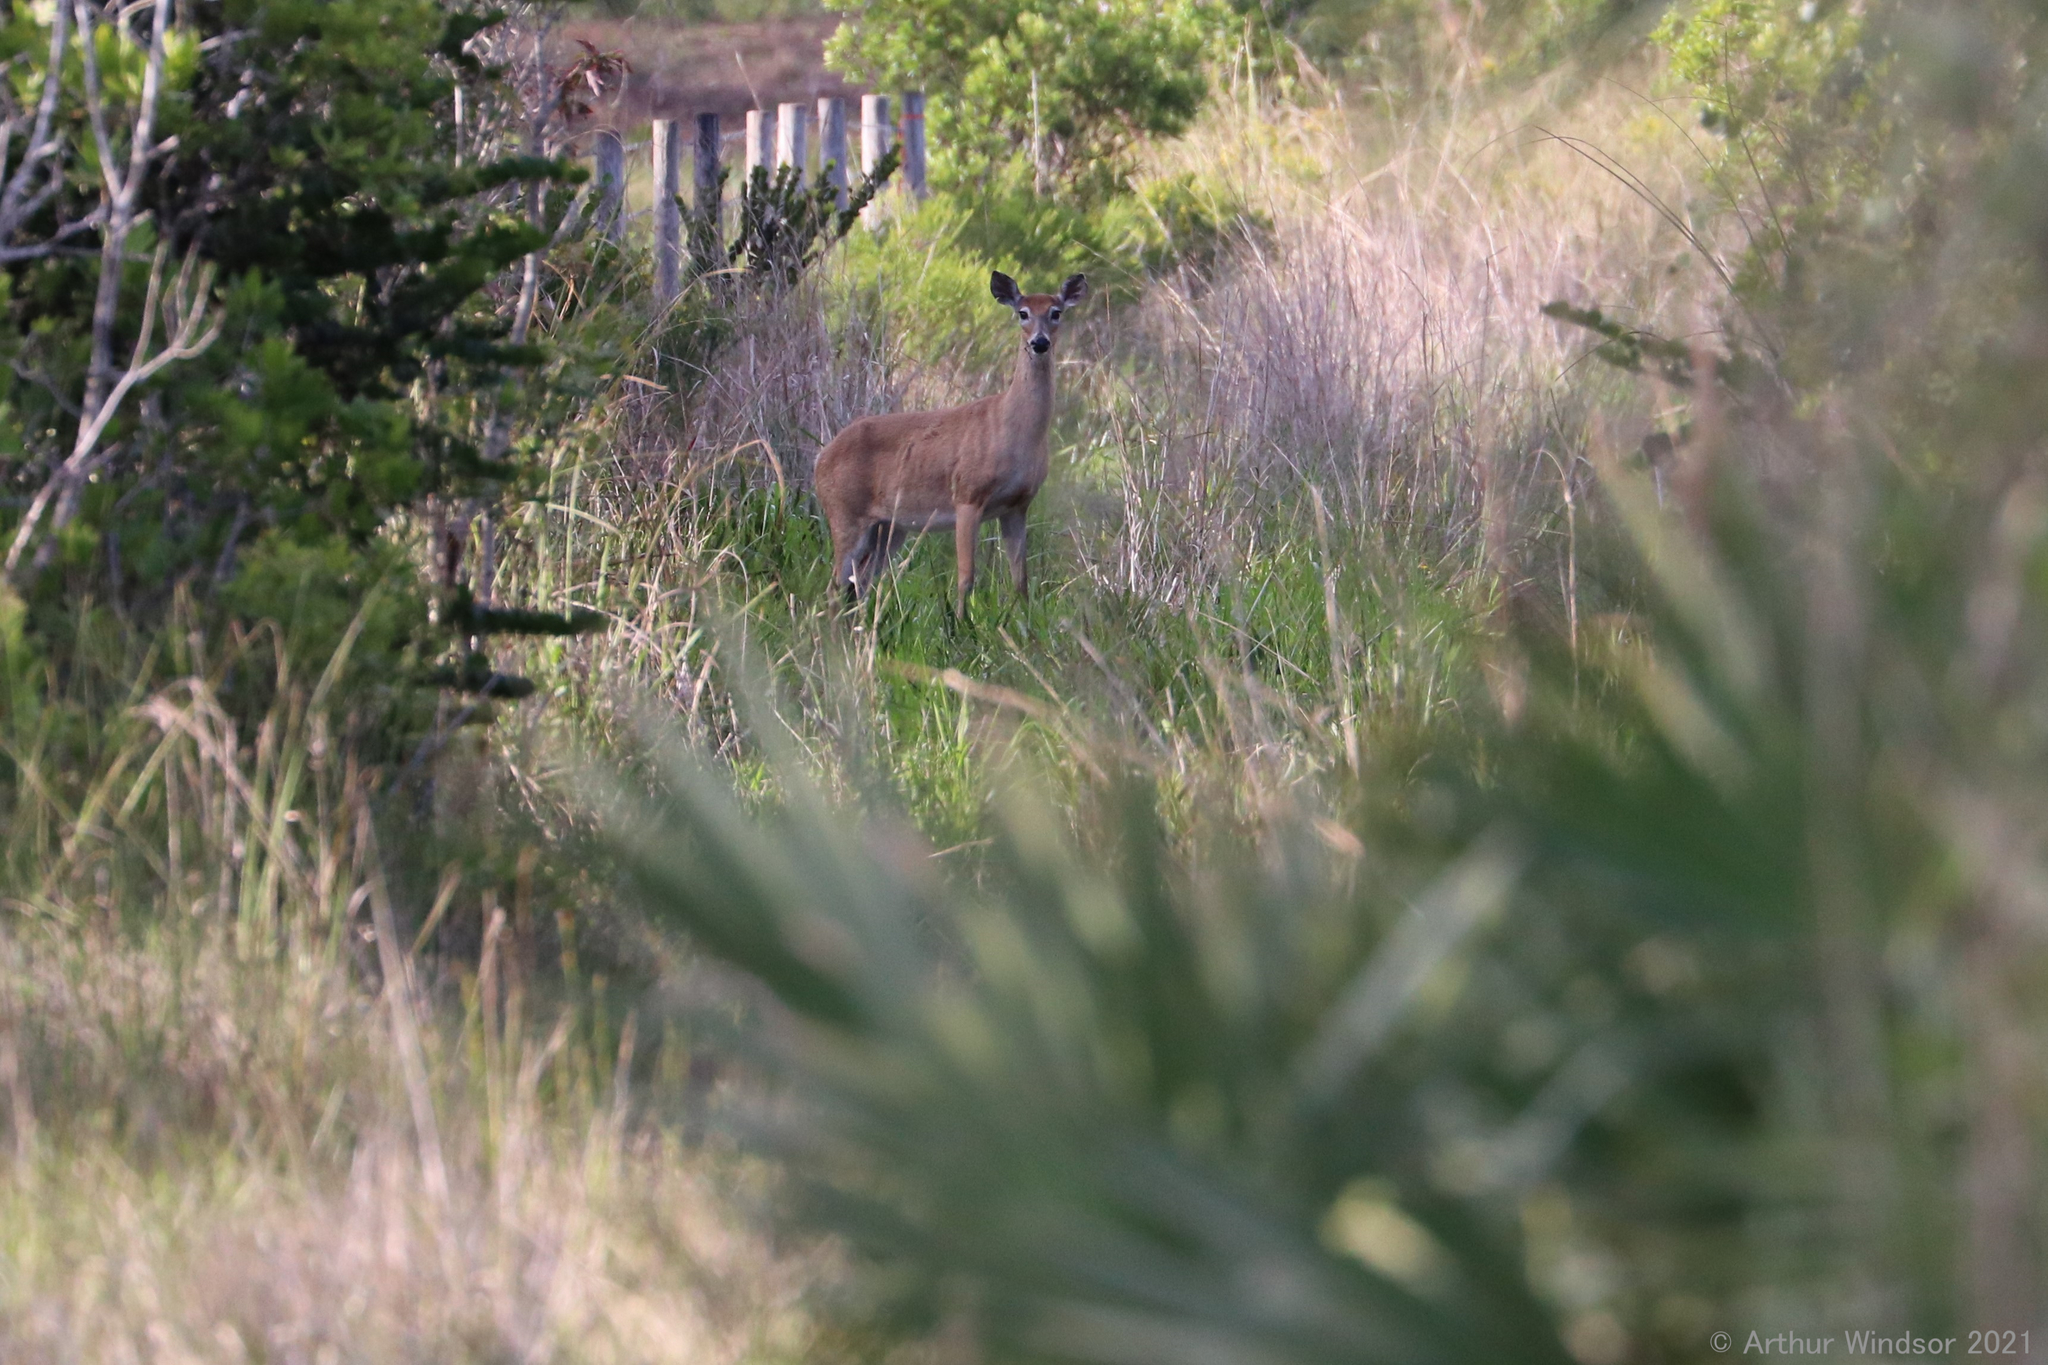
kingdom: Animalia
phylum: Chordata
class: Mammalia
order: Artiodactyla
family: Cervidae
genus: Odocoileus
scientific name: Odocoileus virginianus
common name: White-tailed deer
